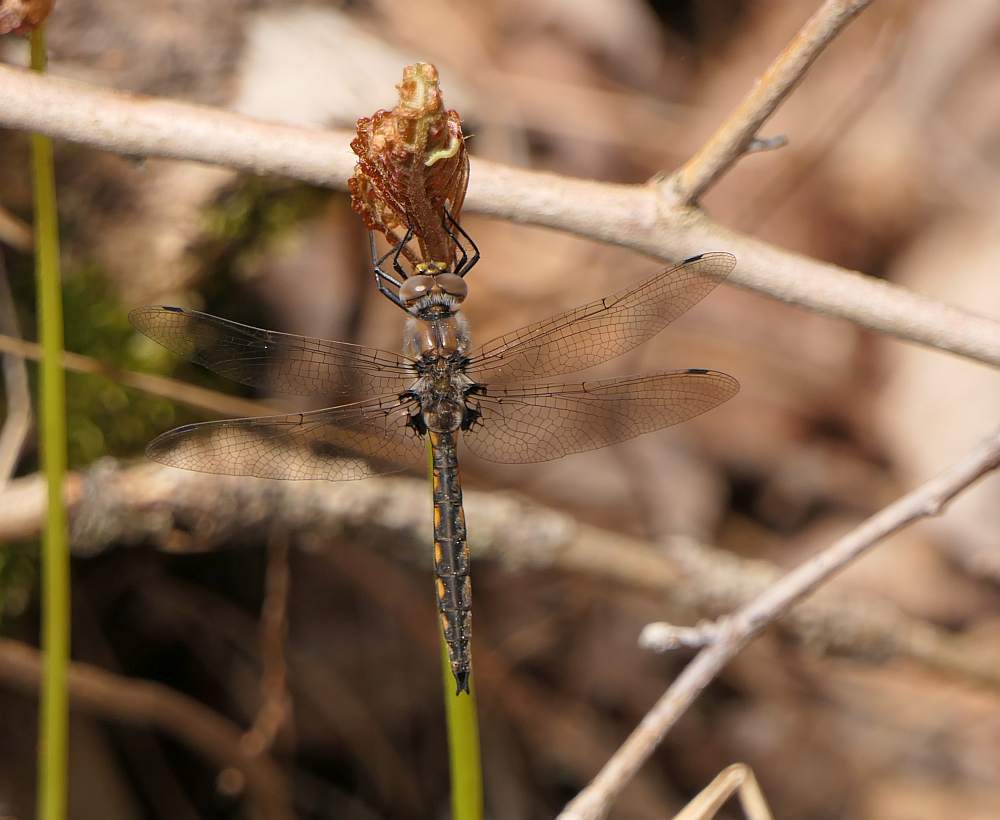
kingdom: Animalia
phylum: Arthropoda
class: Insecta
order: Odonata
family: Corduliidae
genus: Epitheca
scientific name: Epitheca canis
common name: Beaverpond baskettail
